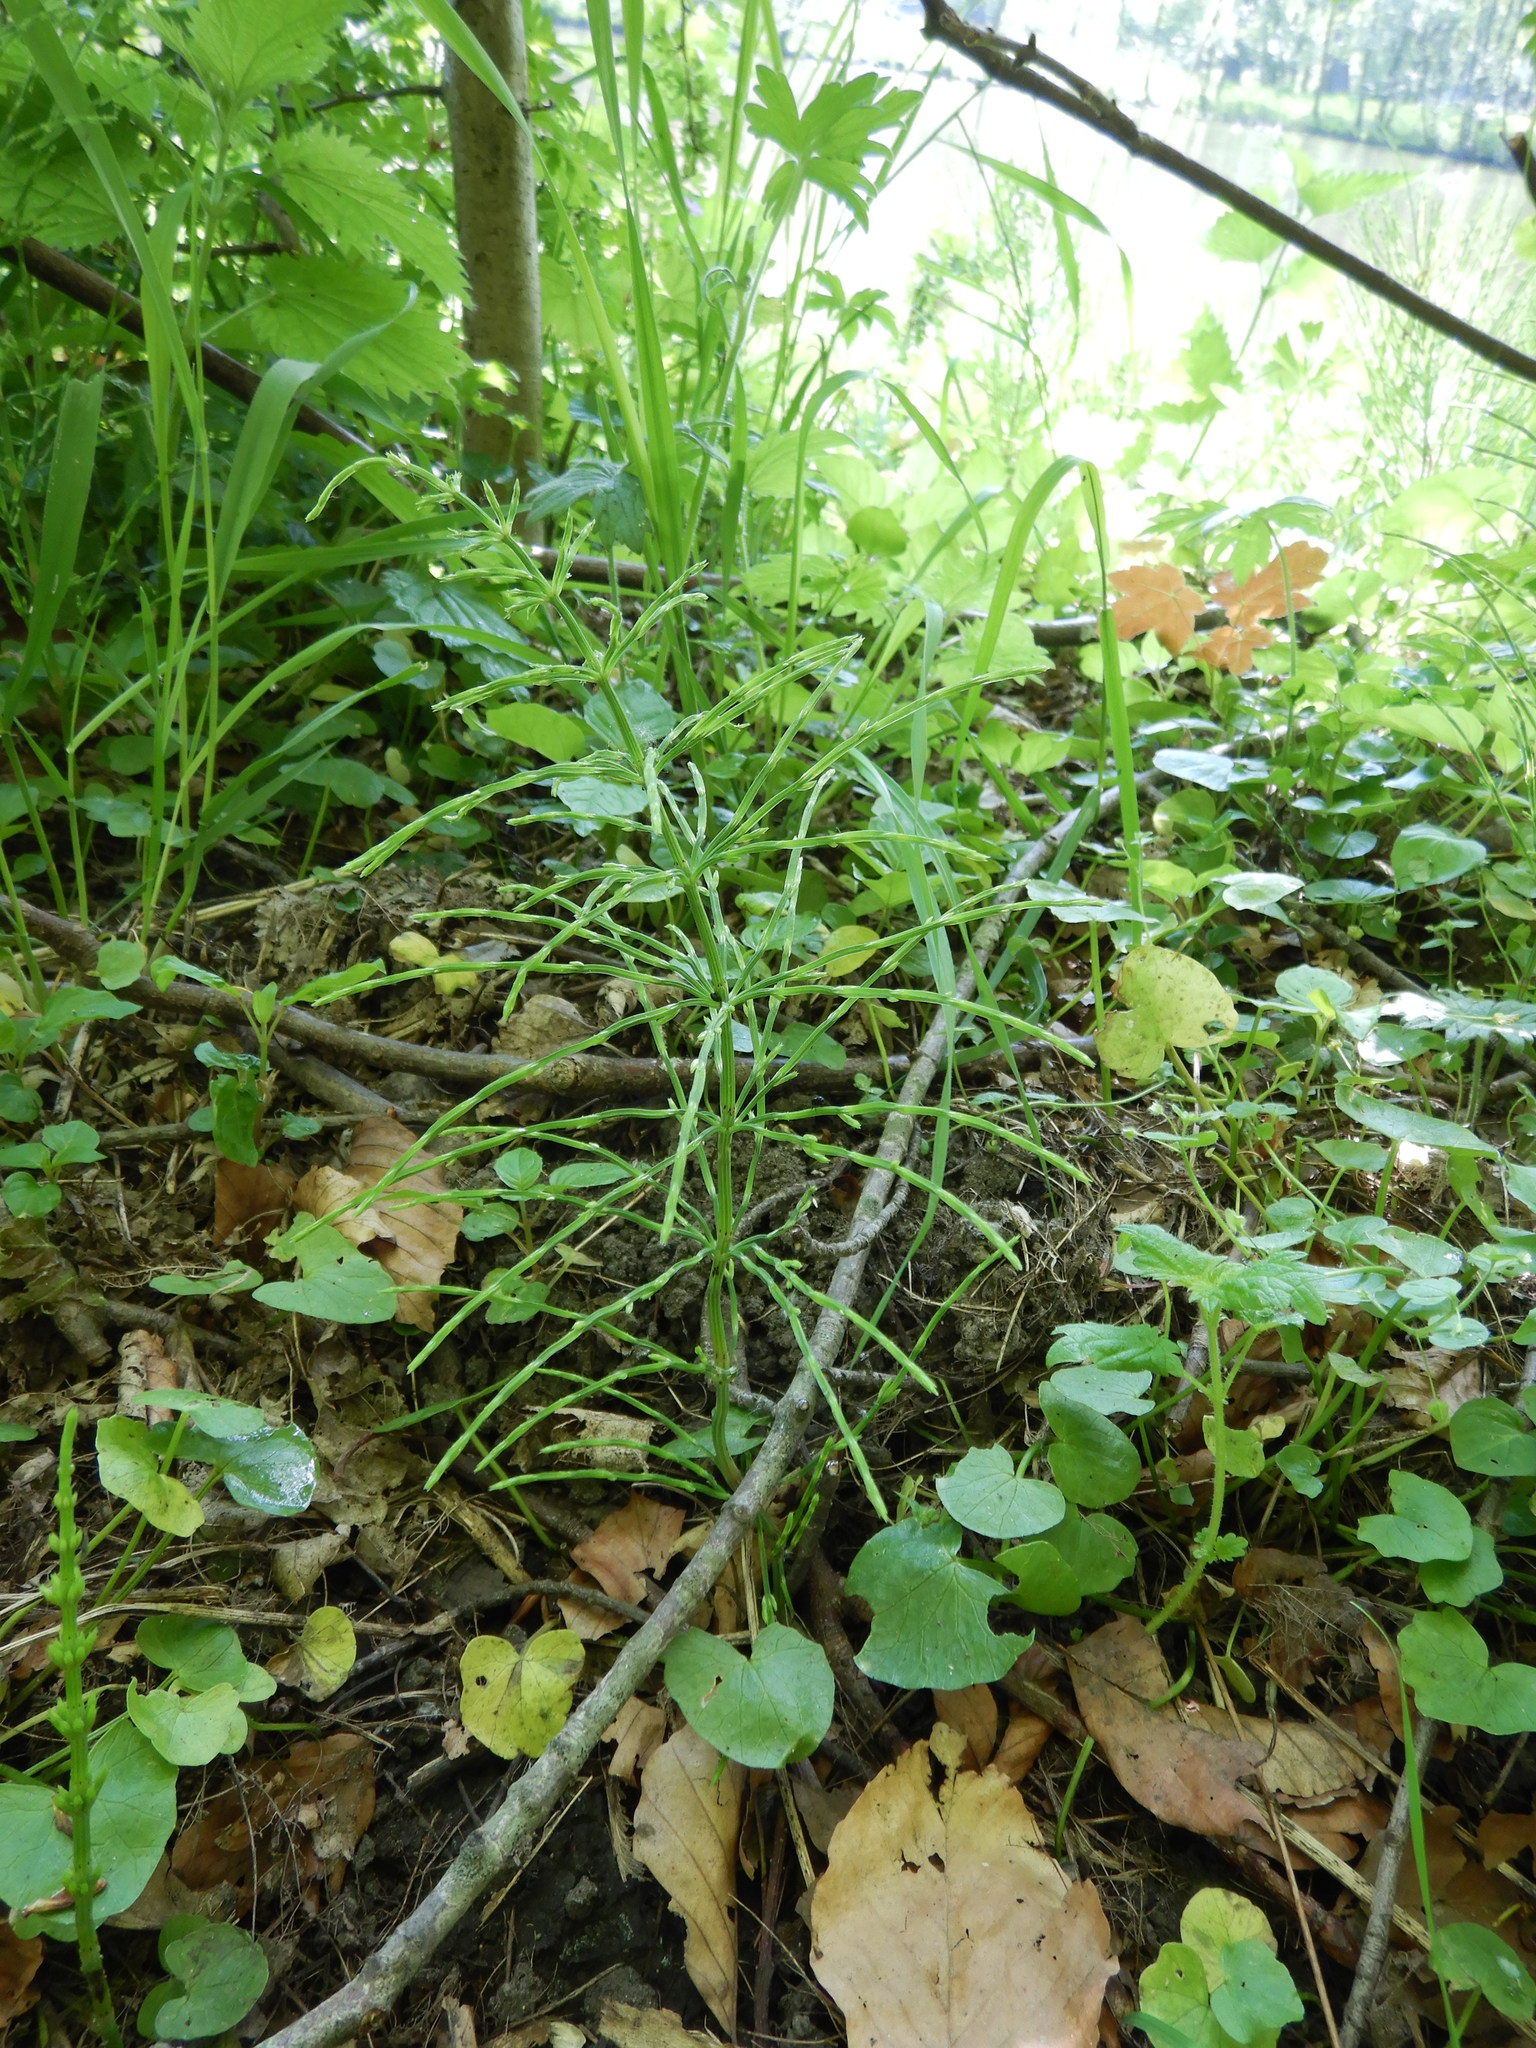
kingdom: Plantae
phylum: Tracheophyta
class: Polypodiopsida
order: Equisetales
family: Equisetaceae
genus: Equisetum
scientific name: Equisetum arvense
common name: Field horsetail
